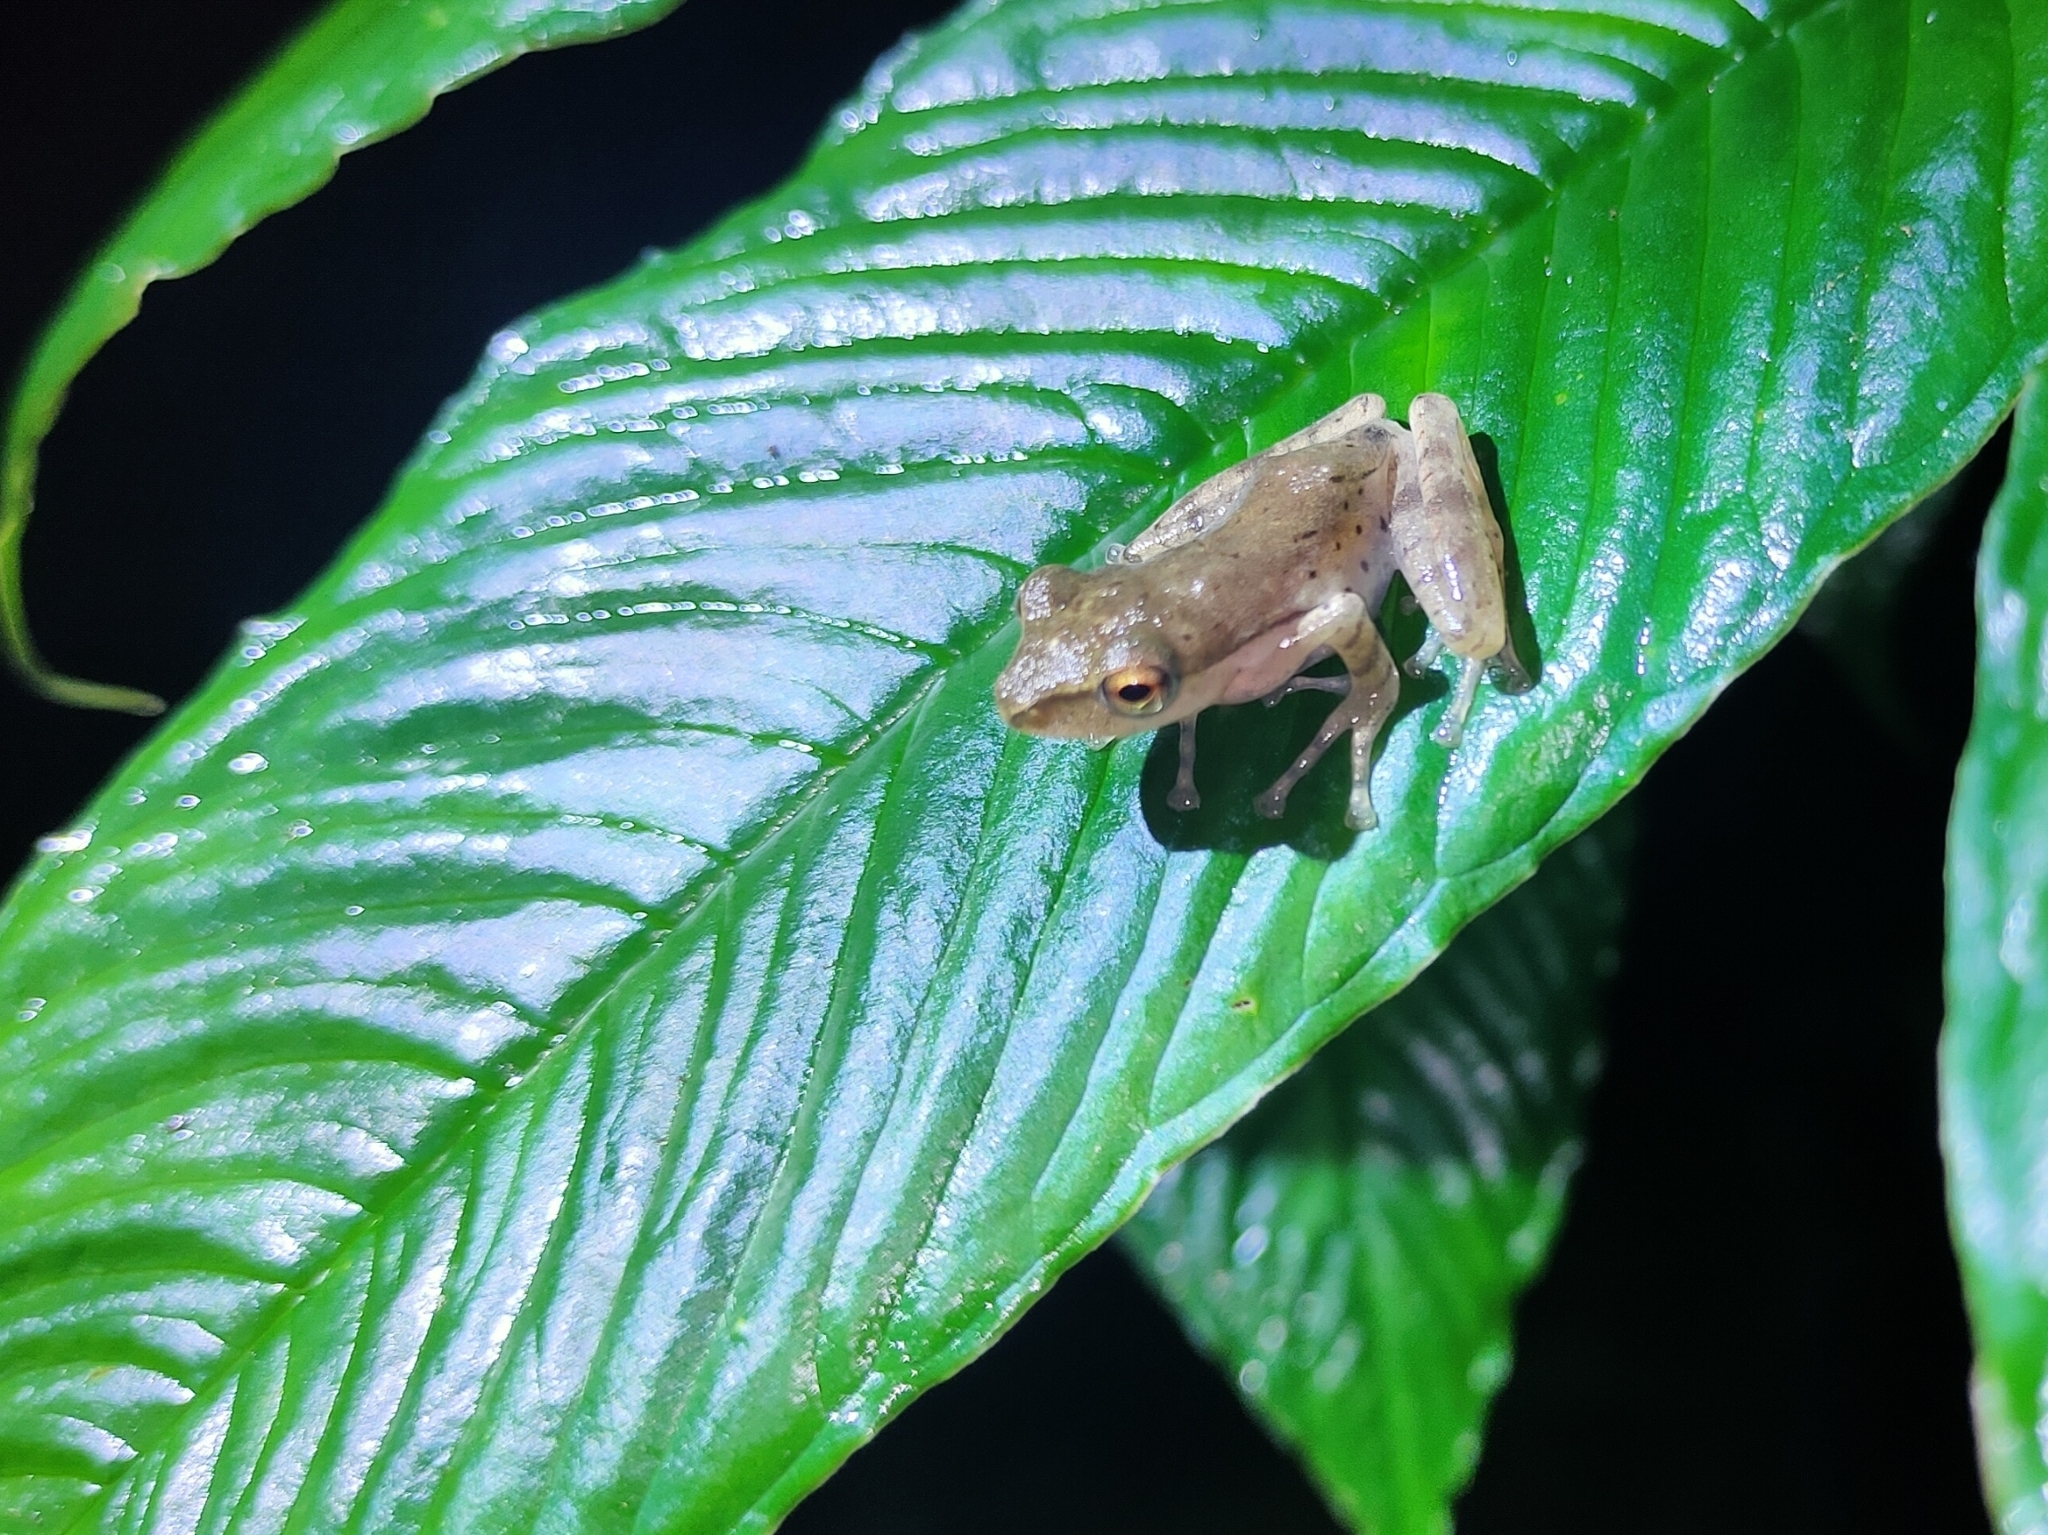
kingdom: Animalia
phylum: Chordata
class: Amphibia
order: Anura
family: Rhacophoridae
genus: Polypedates
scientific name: Polypedates leucomystax
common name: Common tree frog/four-lined tree frog
